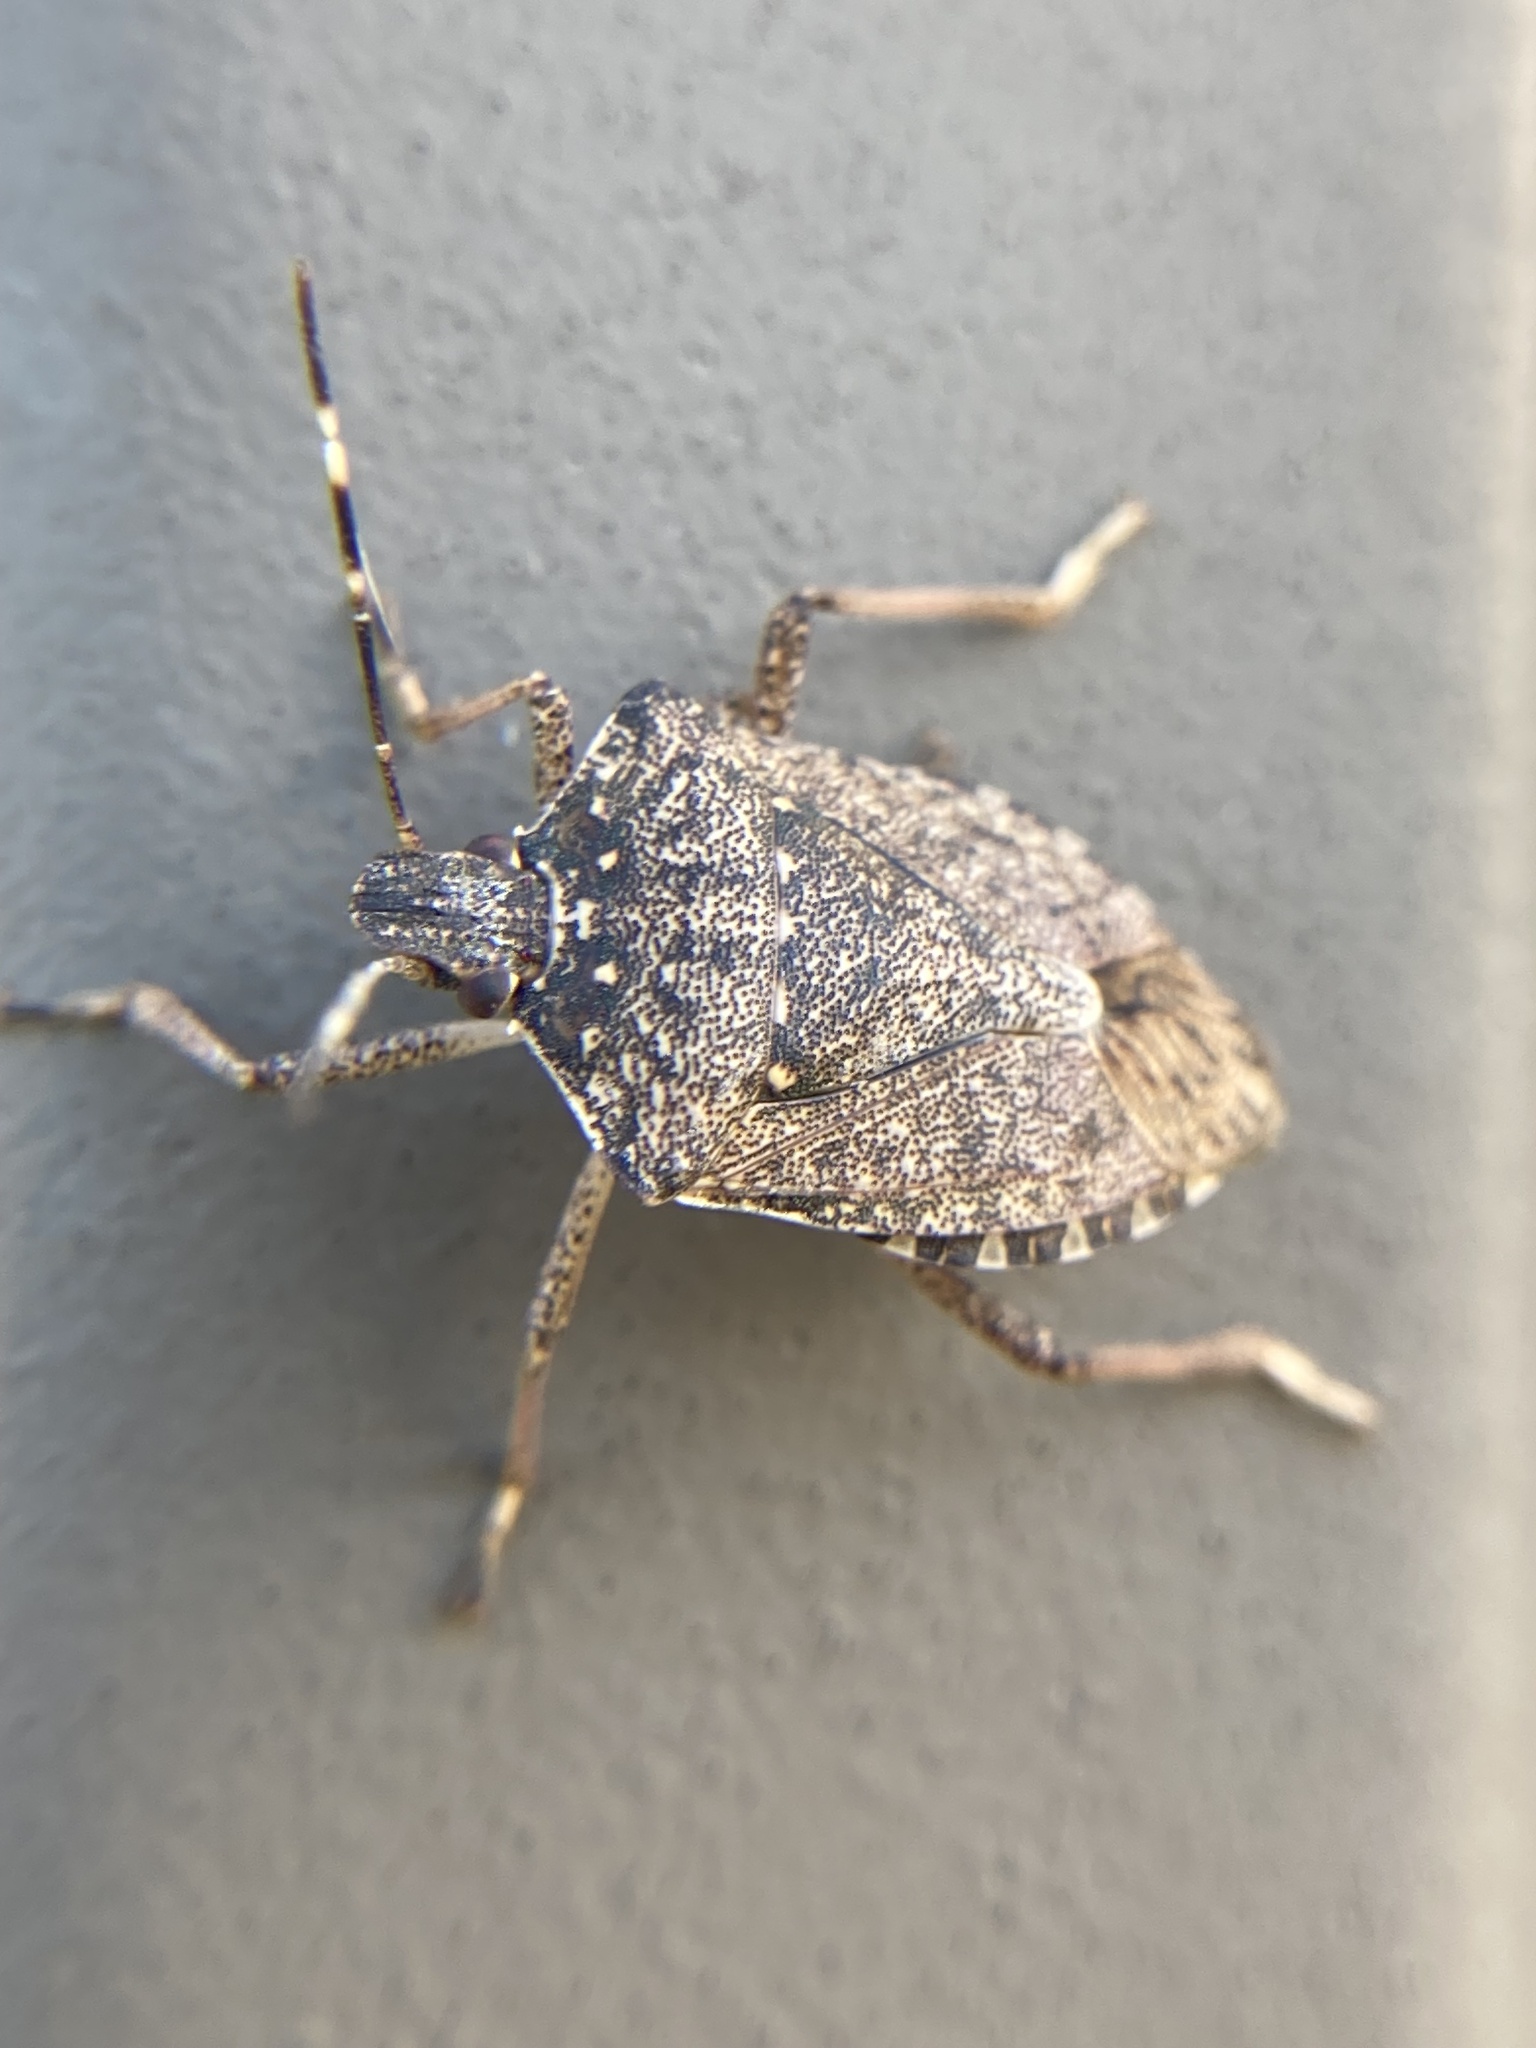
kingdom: Animalia
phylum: Arthropoda
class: Insecta
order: Hemiptera
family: Pentatomidae
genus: Halyomorpha
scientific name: Halyomorpha halys
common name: Brown marmorated stink bug
